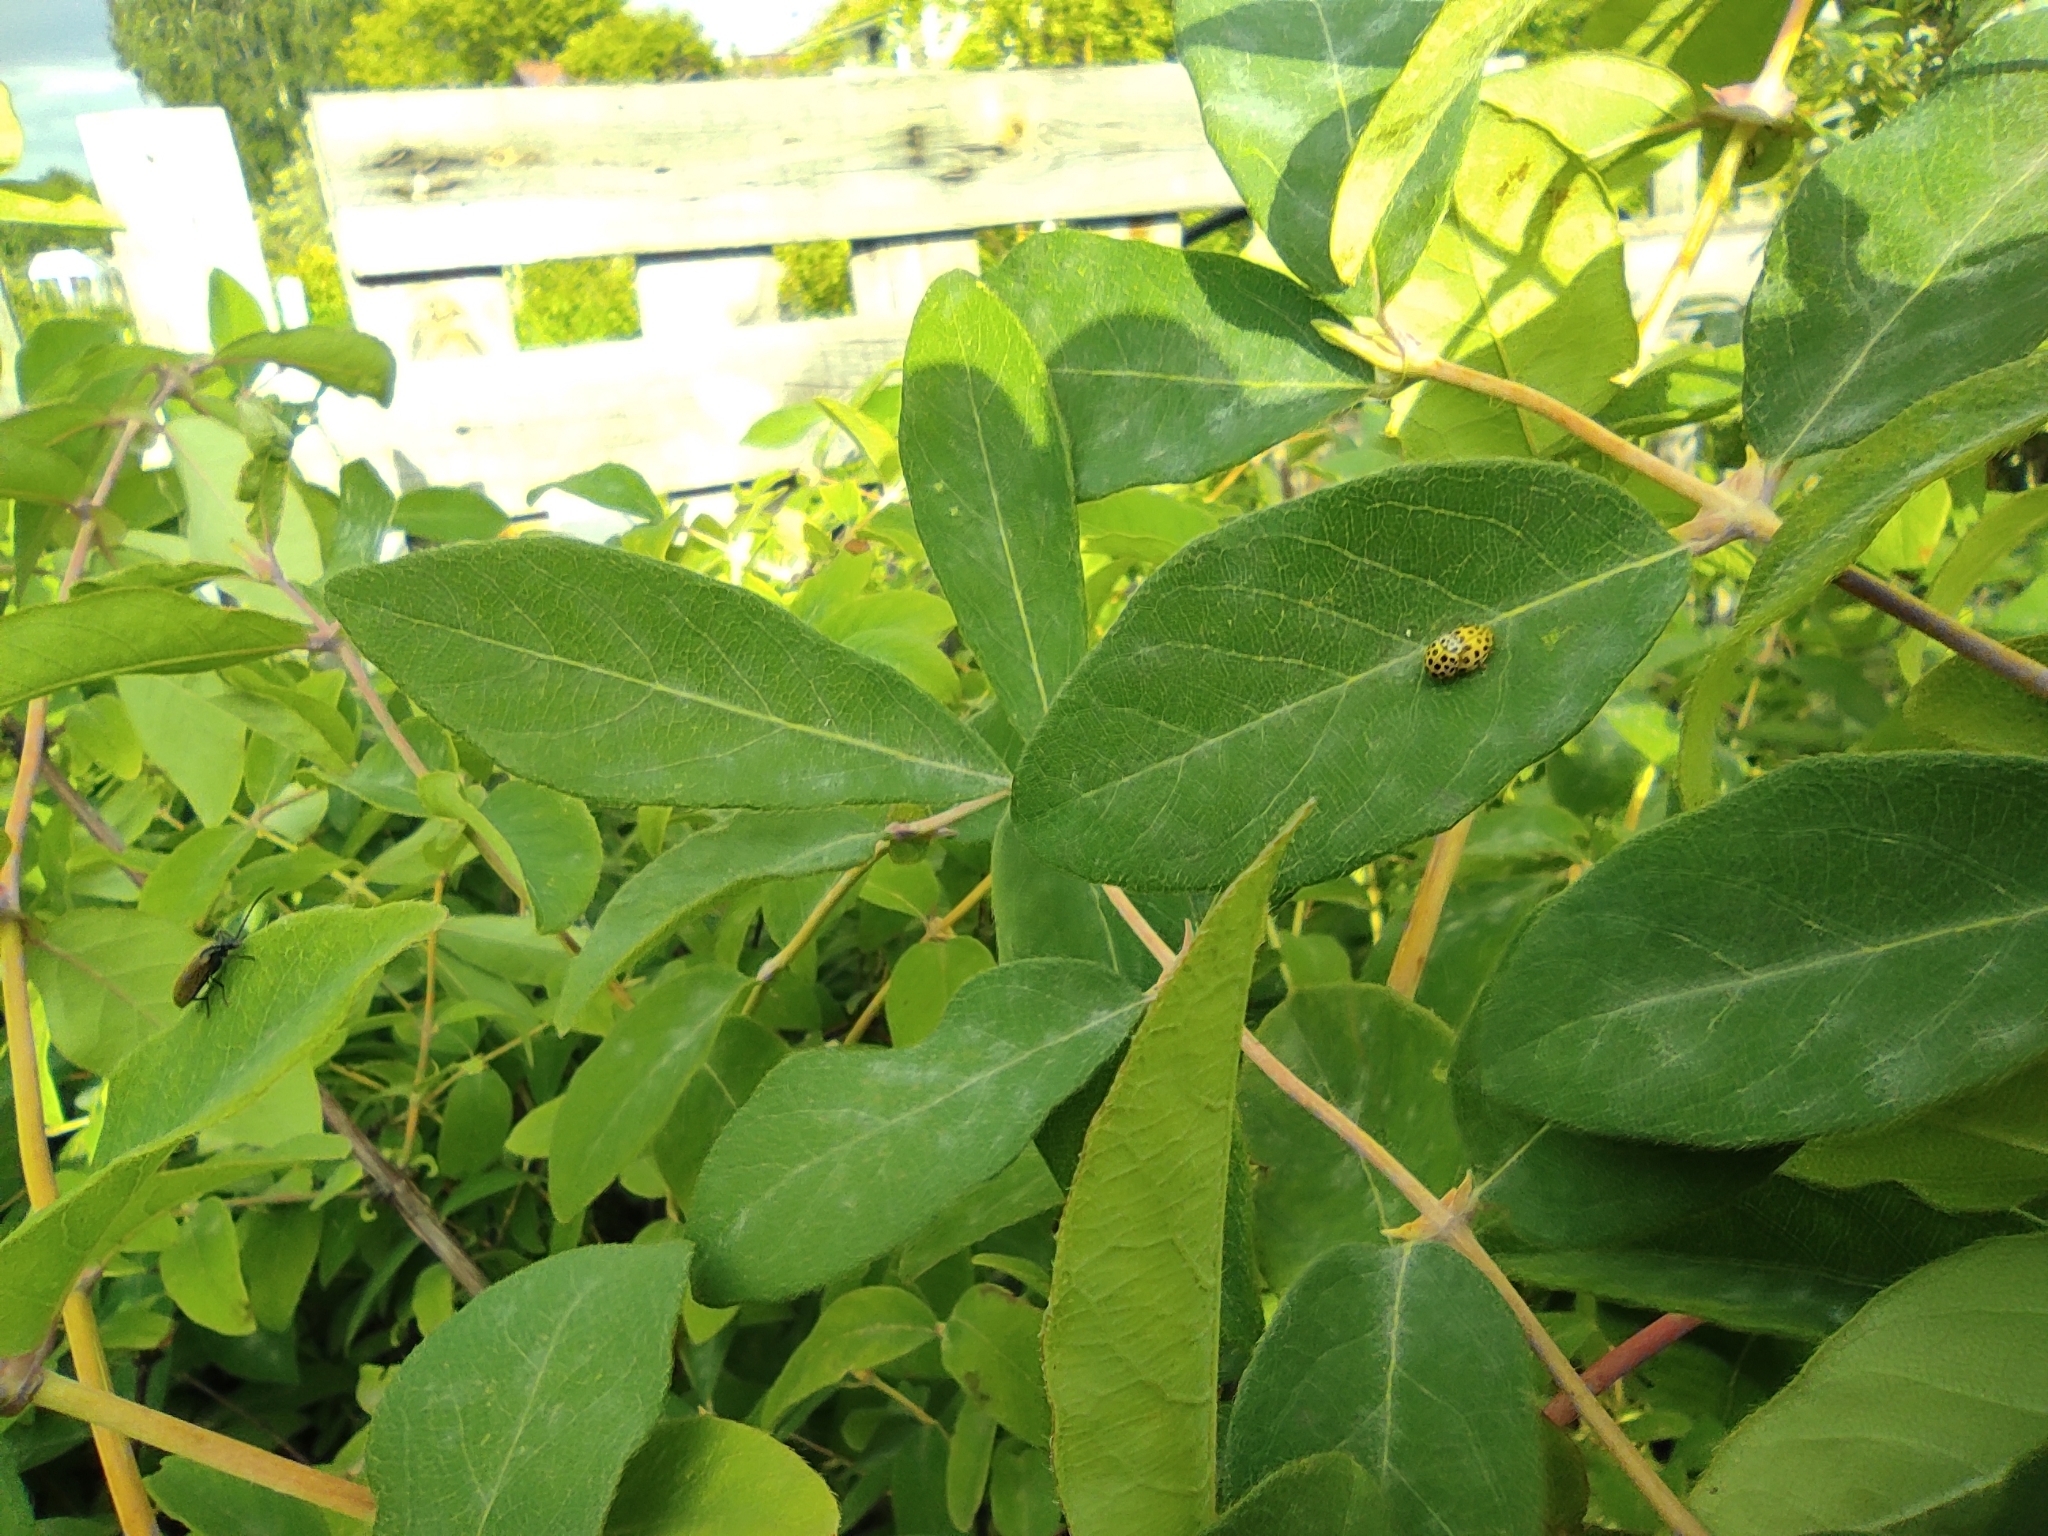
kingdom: Animalia
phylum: Arthropoda
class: Insecta
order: Coleoptera
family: Coccinellidae
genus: Psyllobora
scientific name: Psyllobora vigintiduopunctata
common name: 22-spot ladybird
